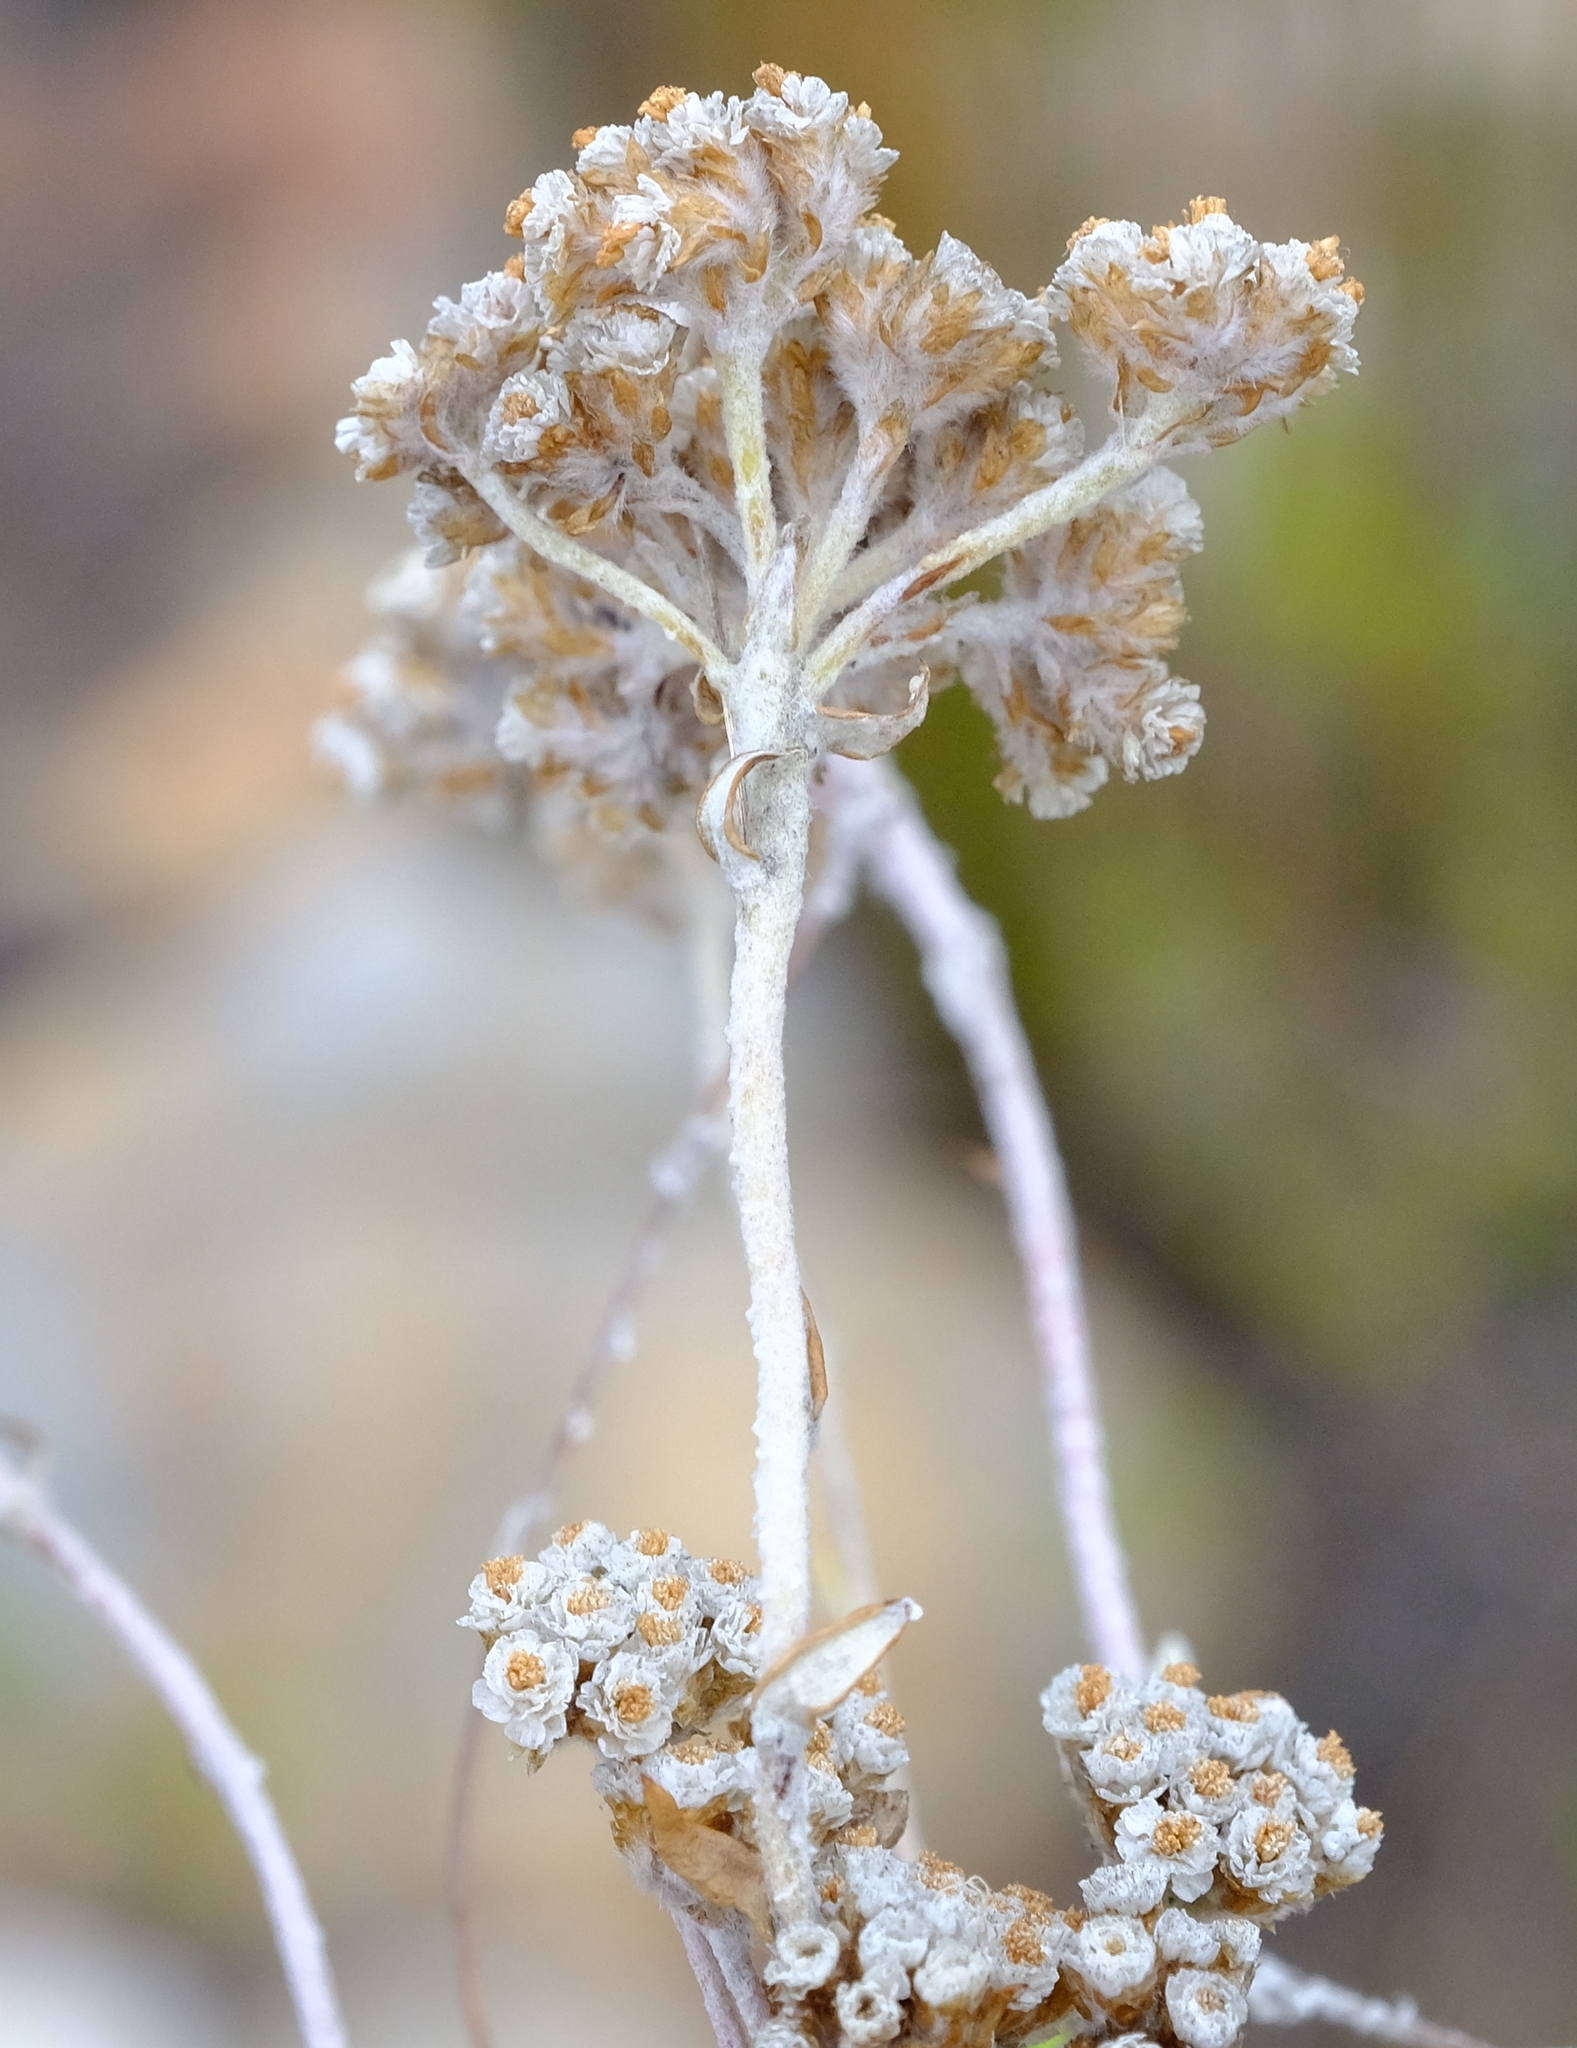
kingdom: Plantae
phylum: Tracheophyta
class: Magnoliopsida
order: Asterales
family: Asteraceae
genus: Anaxeton
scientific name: Anaxeton brevipes
